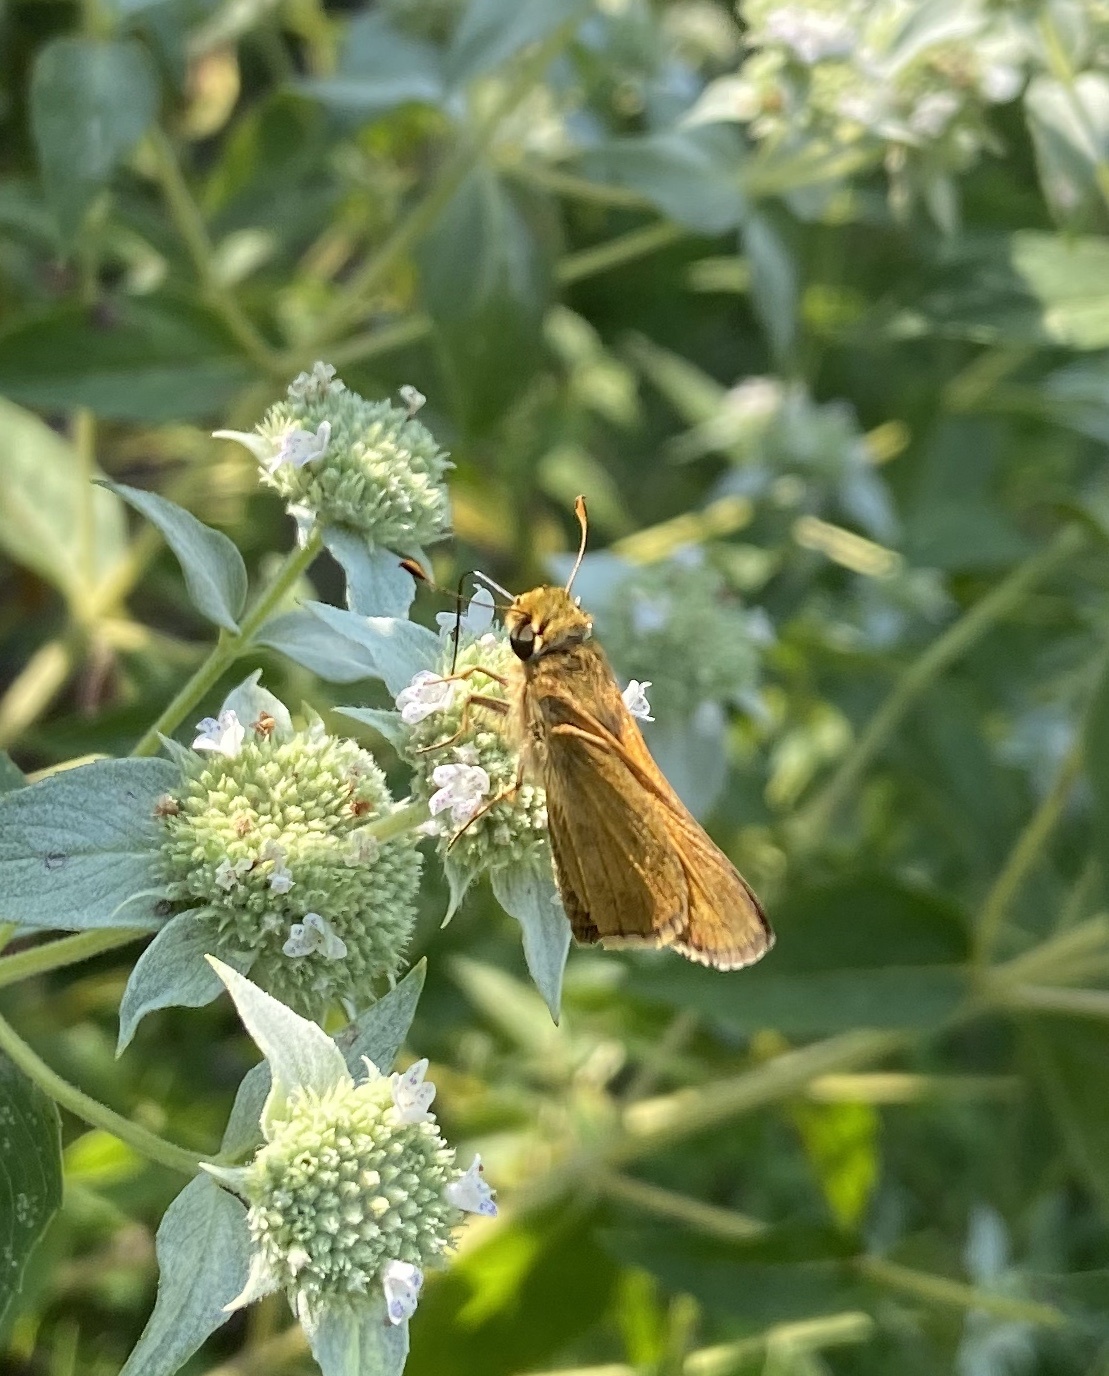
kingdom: Animalia
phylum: Arthropoda
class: Insecta
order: Lepidoptera
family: Hesperiidae
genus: Atalopedes
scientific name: Atalopedes
